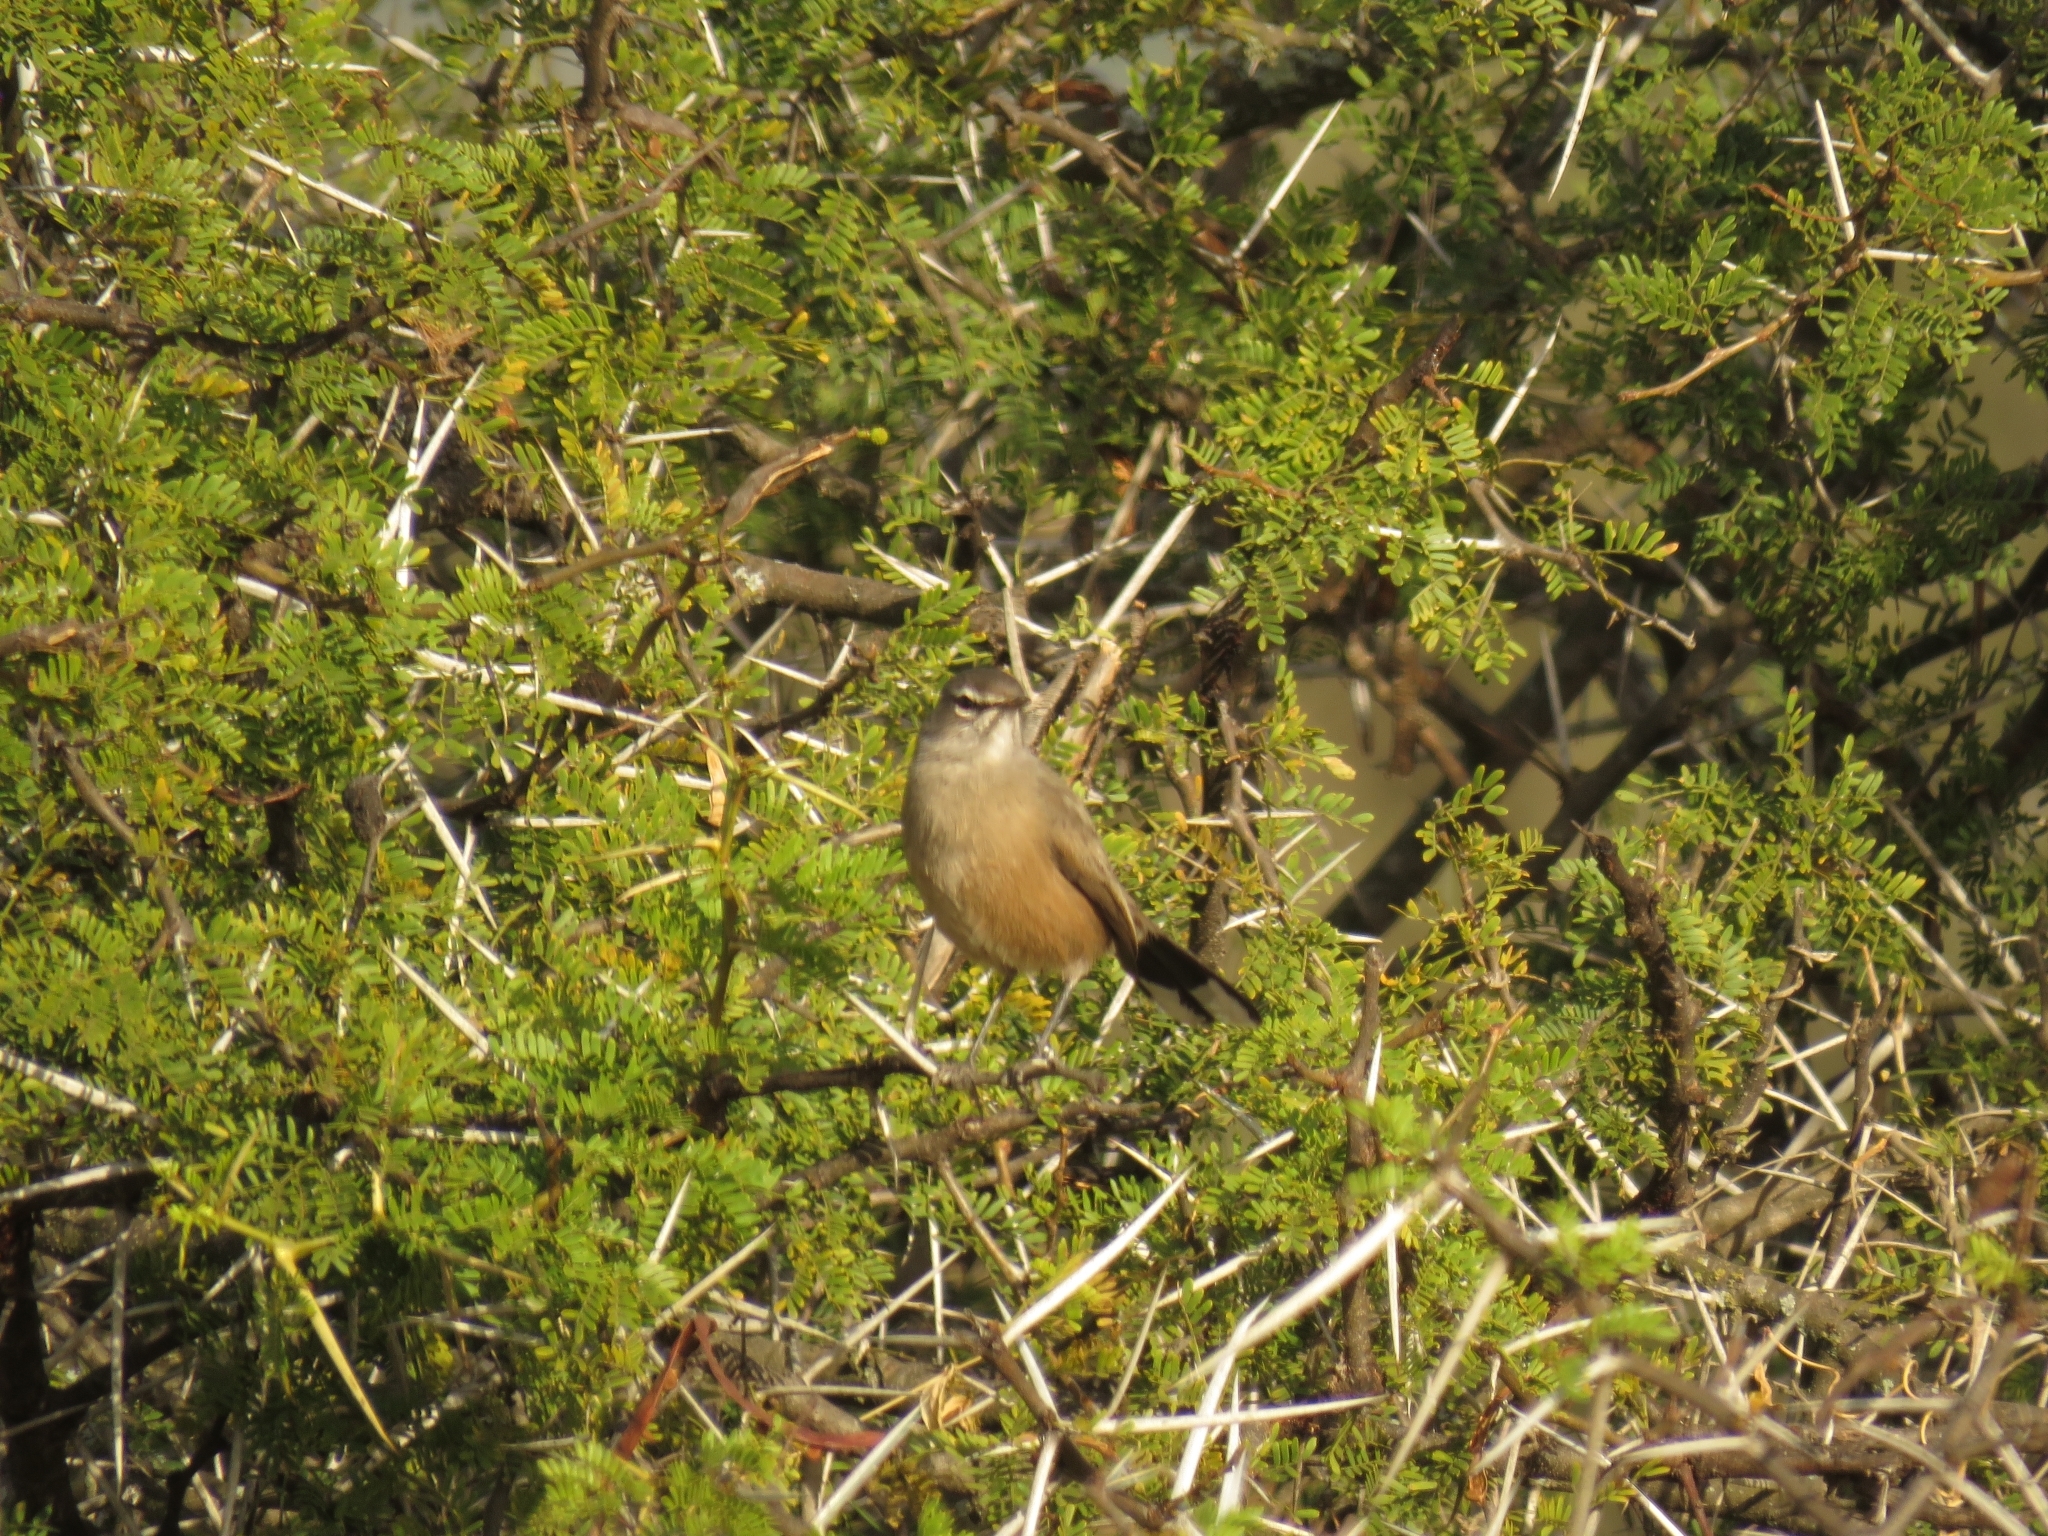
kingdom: Animalia
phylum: Chordata
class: Aves
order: Passeriformes
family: Muscicapidae
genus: Erythropygia
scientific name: Erythropygia coryphoeus
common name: Karoo scrub robin
